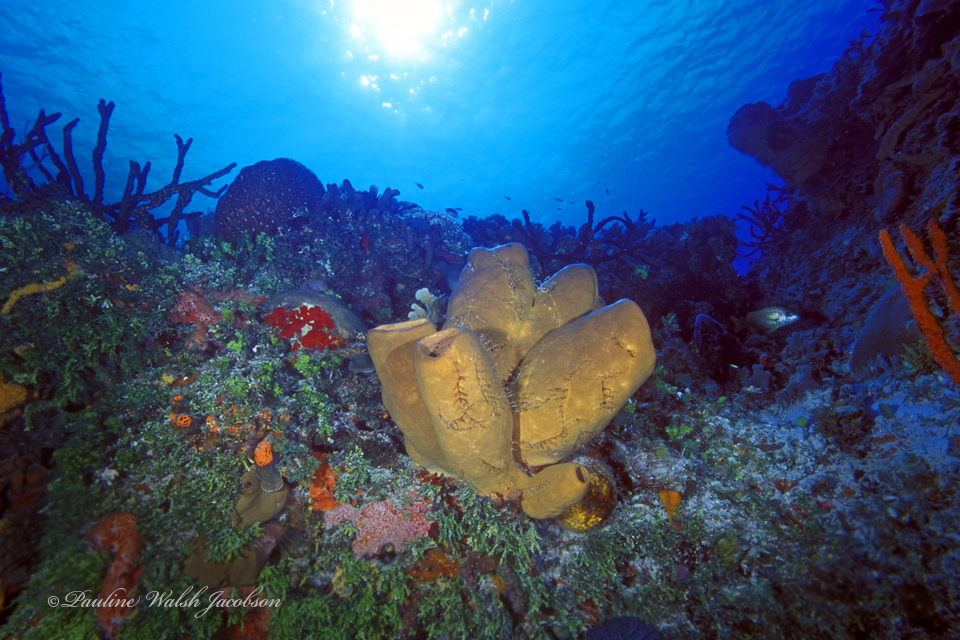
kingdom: Animalia
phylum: Porifera
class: Demospongiae
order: Agelasida
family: Agelasidae
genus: Agelas
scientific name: Agelas tubulata
